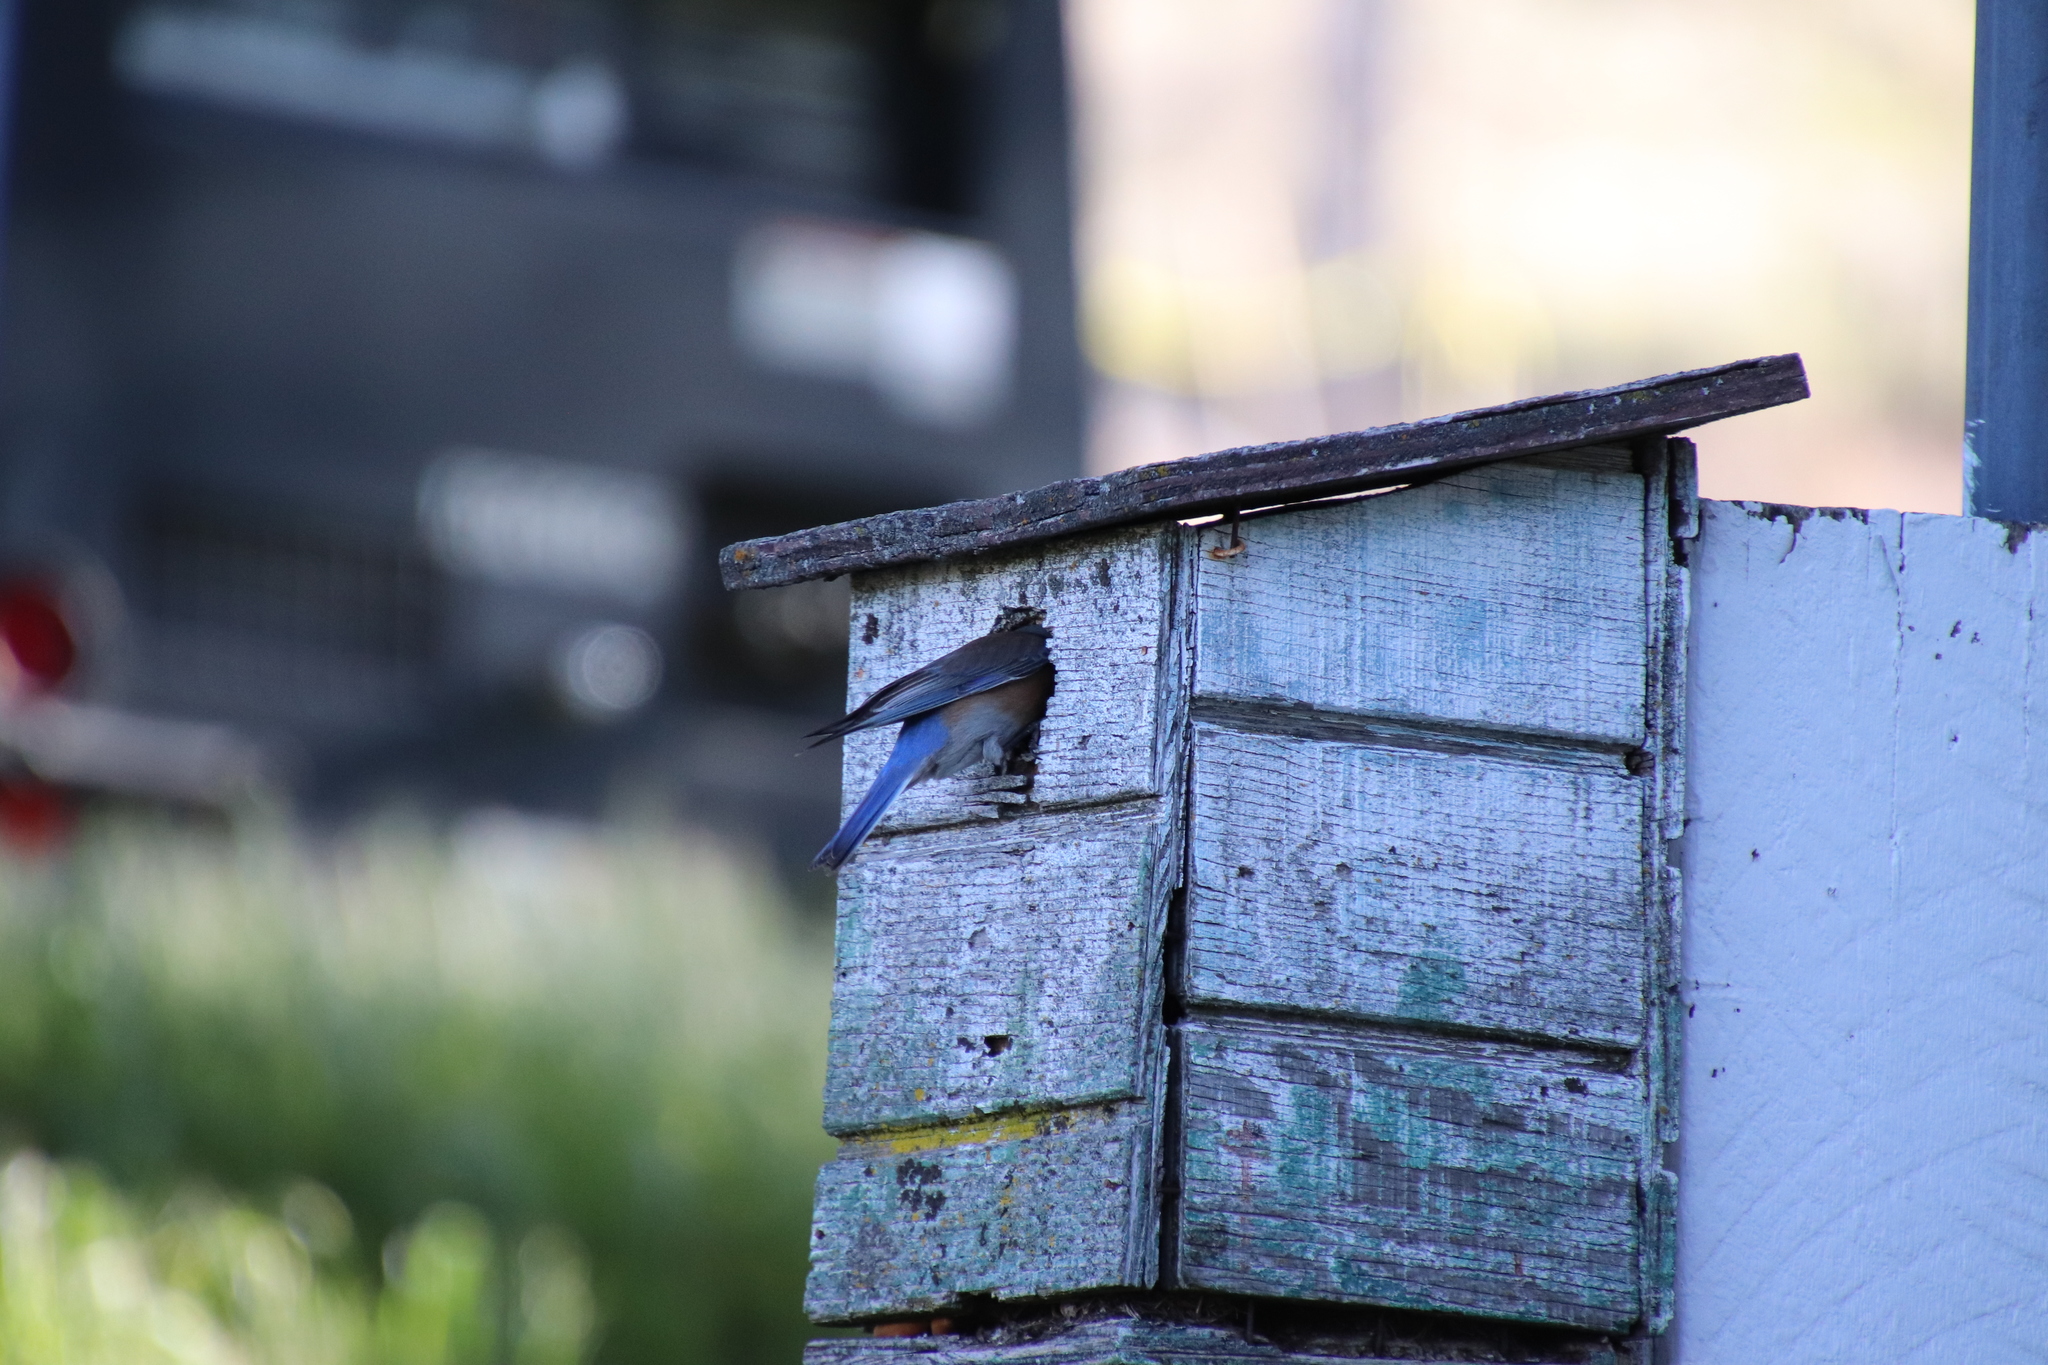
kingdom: Animalia
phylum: Chordata
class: Aves
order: Passeriformes
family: Turdidae
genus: Sialia
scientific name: Sialia mexicana
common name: Western bluebird
